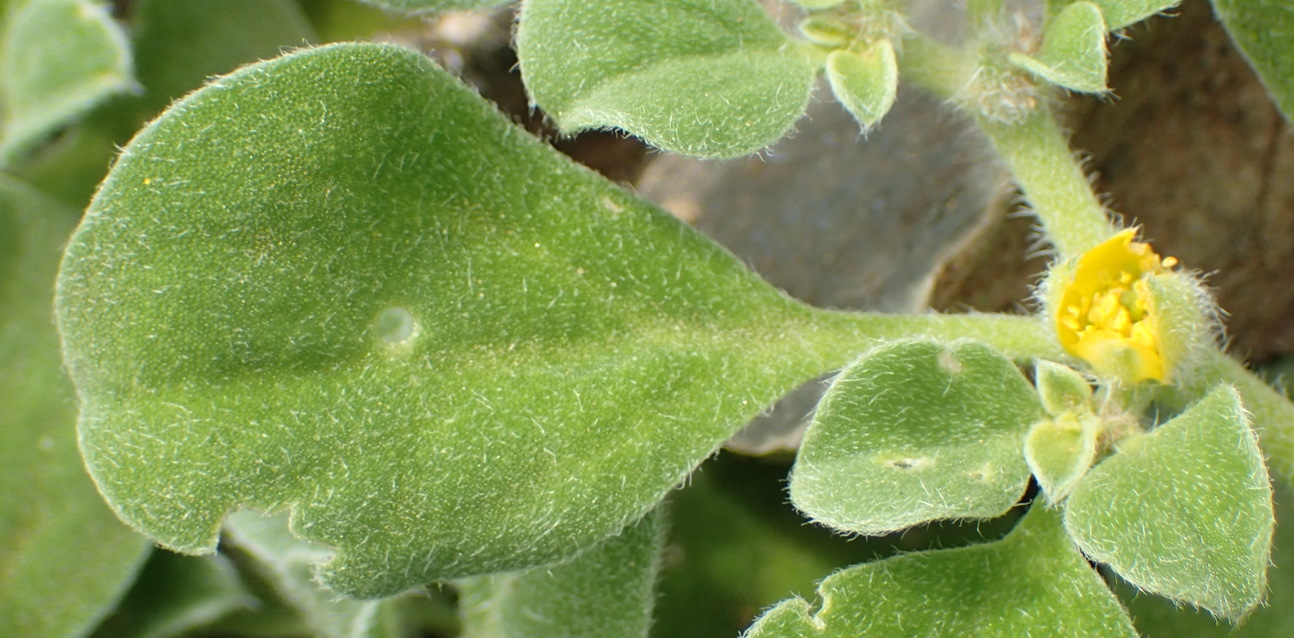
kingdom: Plantae
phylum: Tracheophyta
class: Magnoliopsida
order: Caryophyllales
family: Aizoaceae
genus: Aizoon
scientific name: Aizoon glinoides
